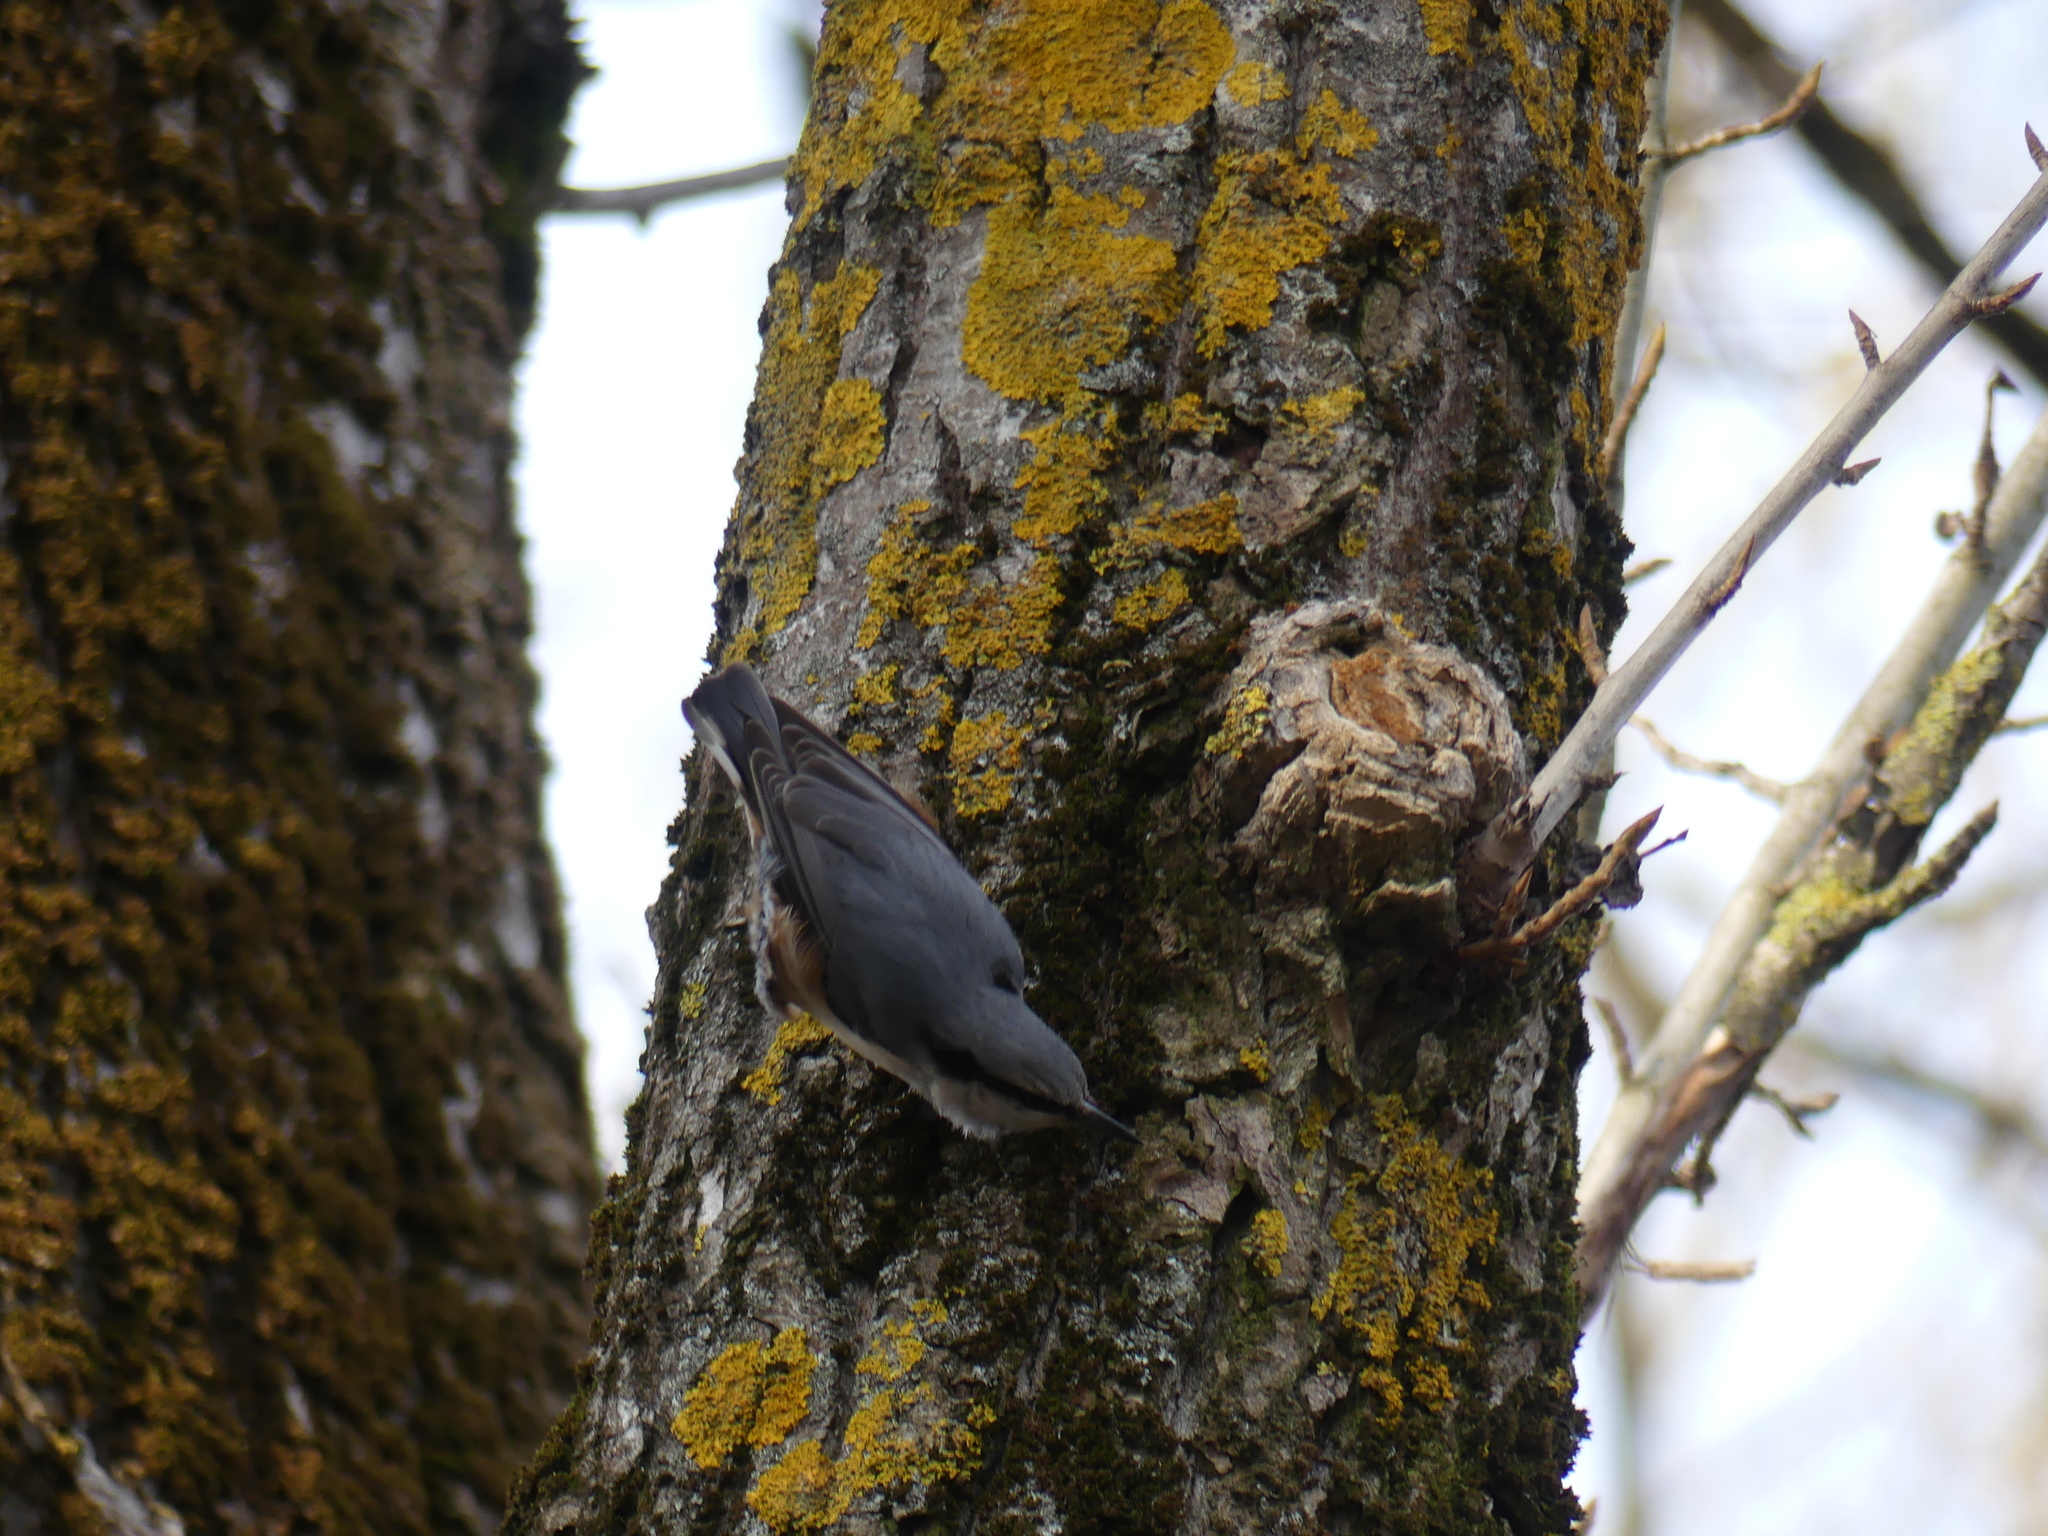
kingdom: Animalia
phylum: Chordata
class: Aves
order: Passeriformes
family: Sittidae
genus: Sitta
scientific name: Sitta europaea
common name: Eurasian nuthatch
